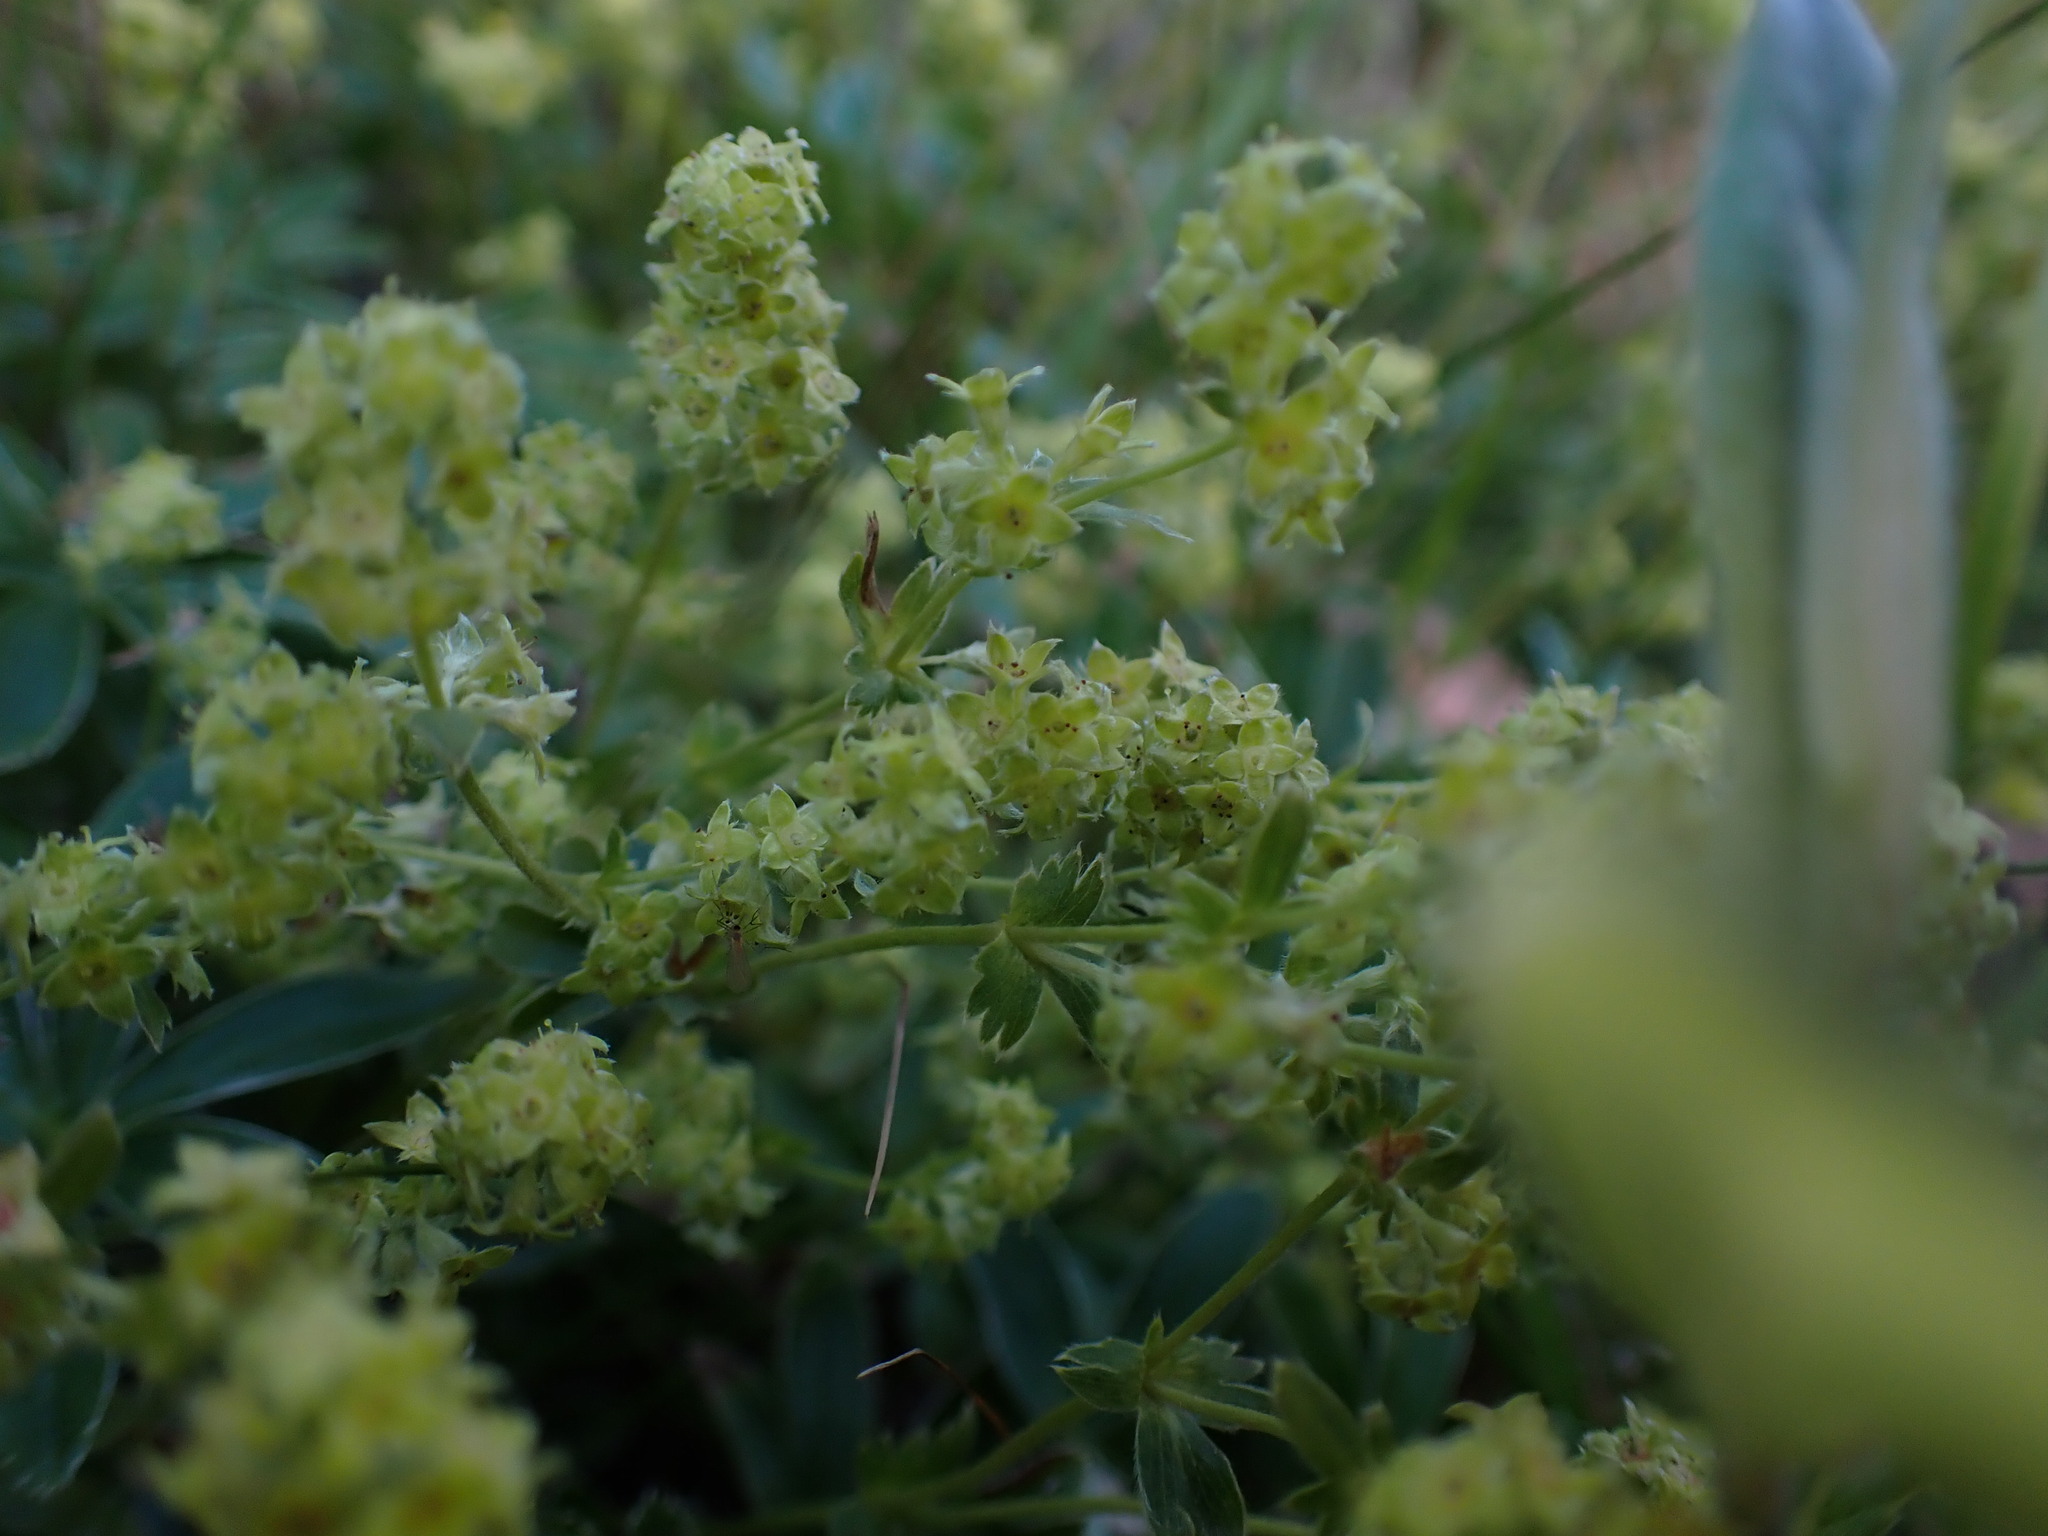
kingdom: Plantae
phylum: Tracheophyta
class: Magnoliopsida
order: Rosales
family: Rosaceae
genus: Alchemilla
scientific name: Alchemilla alpina
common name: Alpine lady's-mantle
